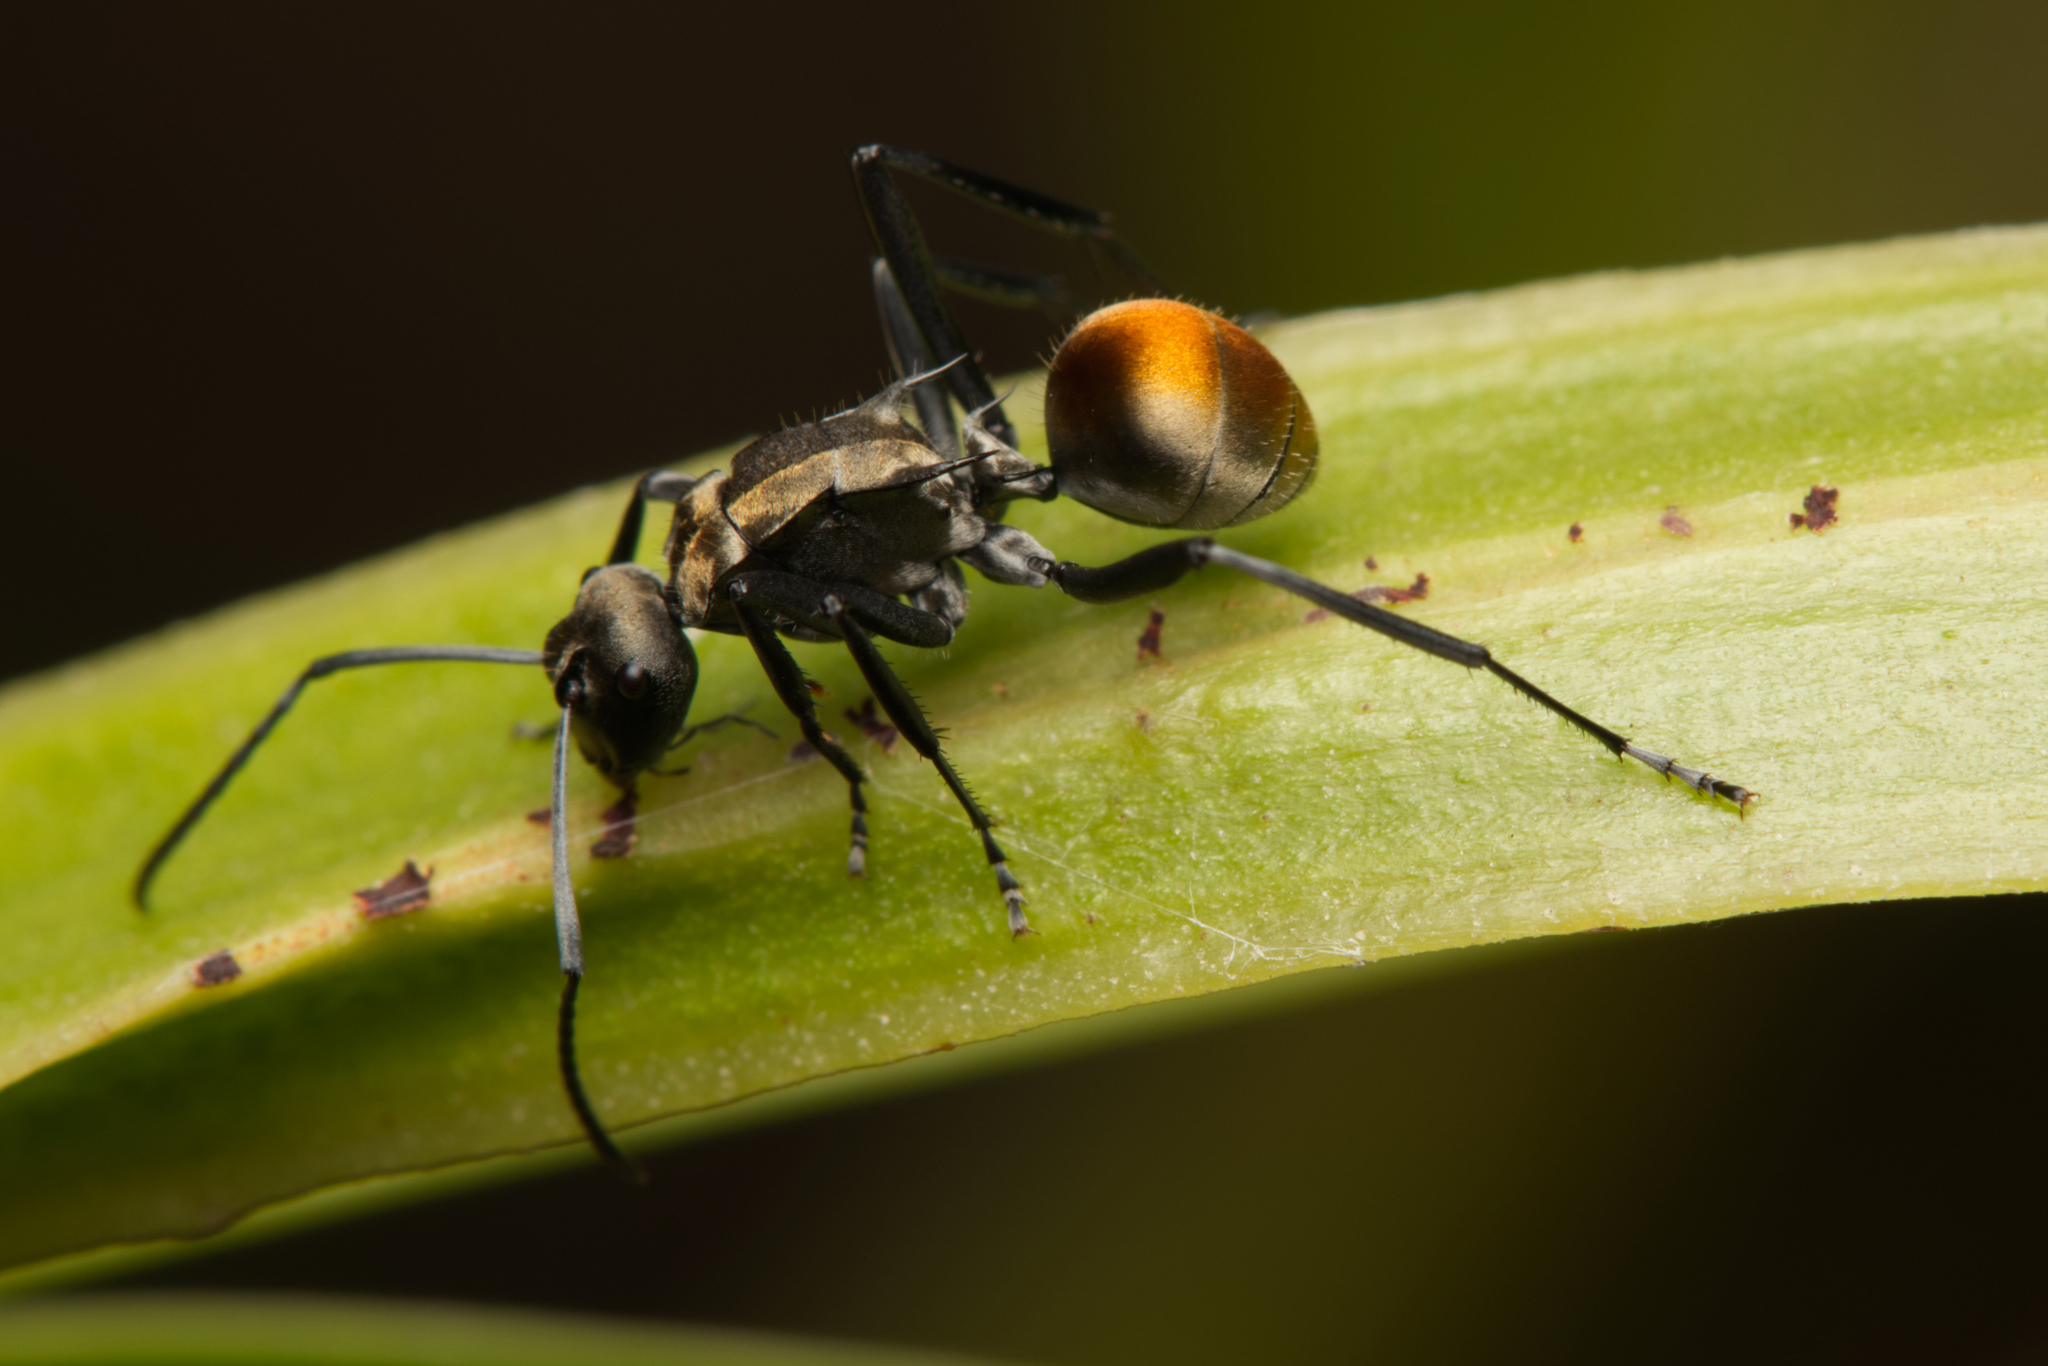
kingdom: Animalia
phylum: Arthropoda
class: Insecta
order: Hymenoptera
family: Formicidae
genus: Polyrhachis
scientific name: Polyrhachis ammon
